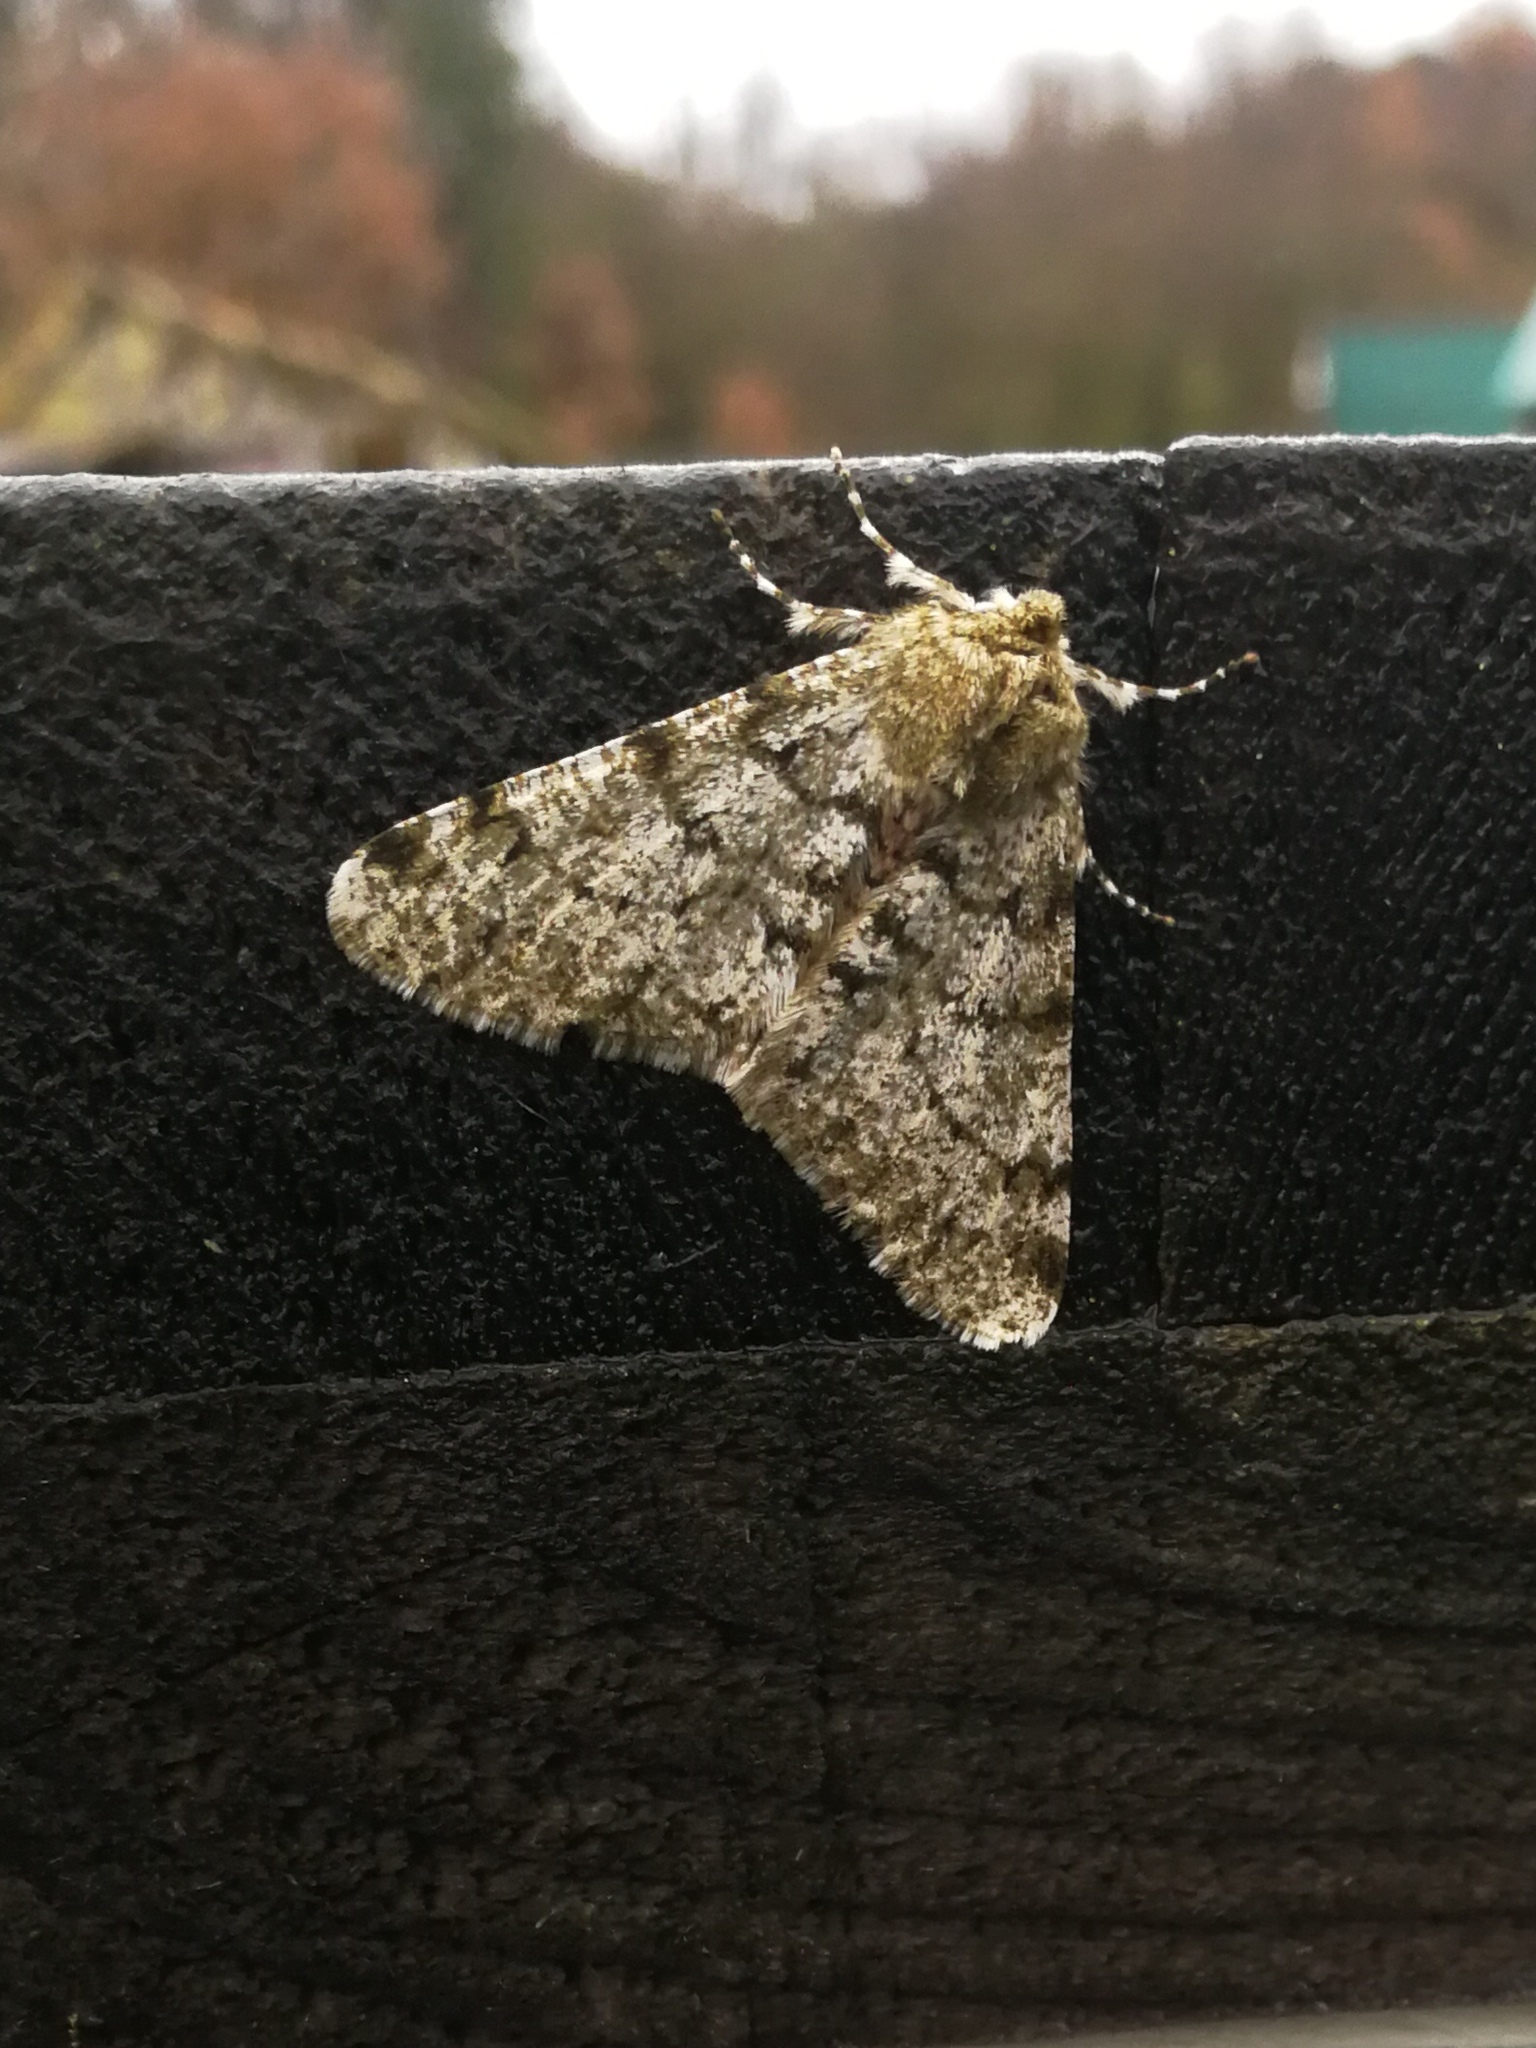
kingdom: Animalia
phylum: Arthropoda
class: Insecta
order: Lepidoptera
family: Geometridae
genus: Phigalia
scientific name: Phigalia pilosaria
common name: Pale brindled beauty
